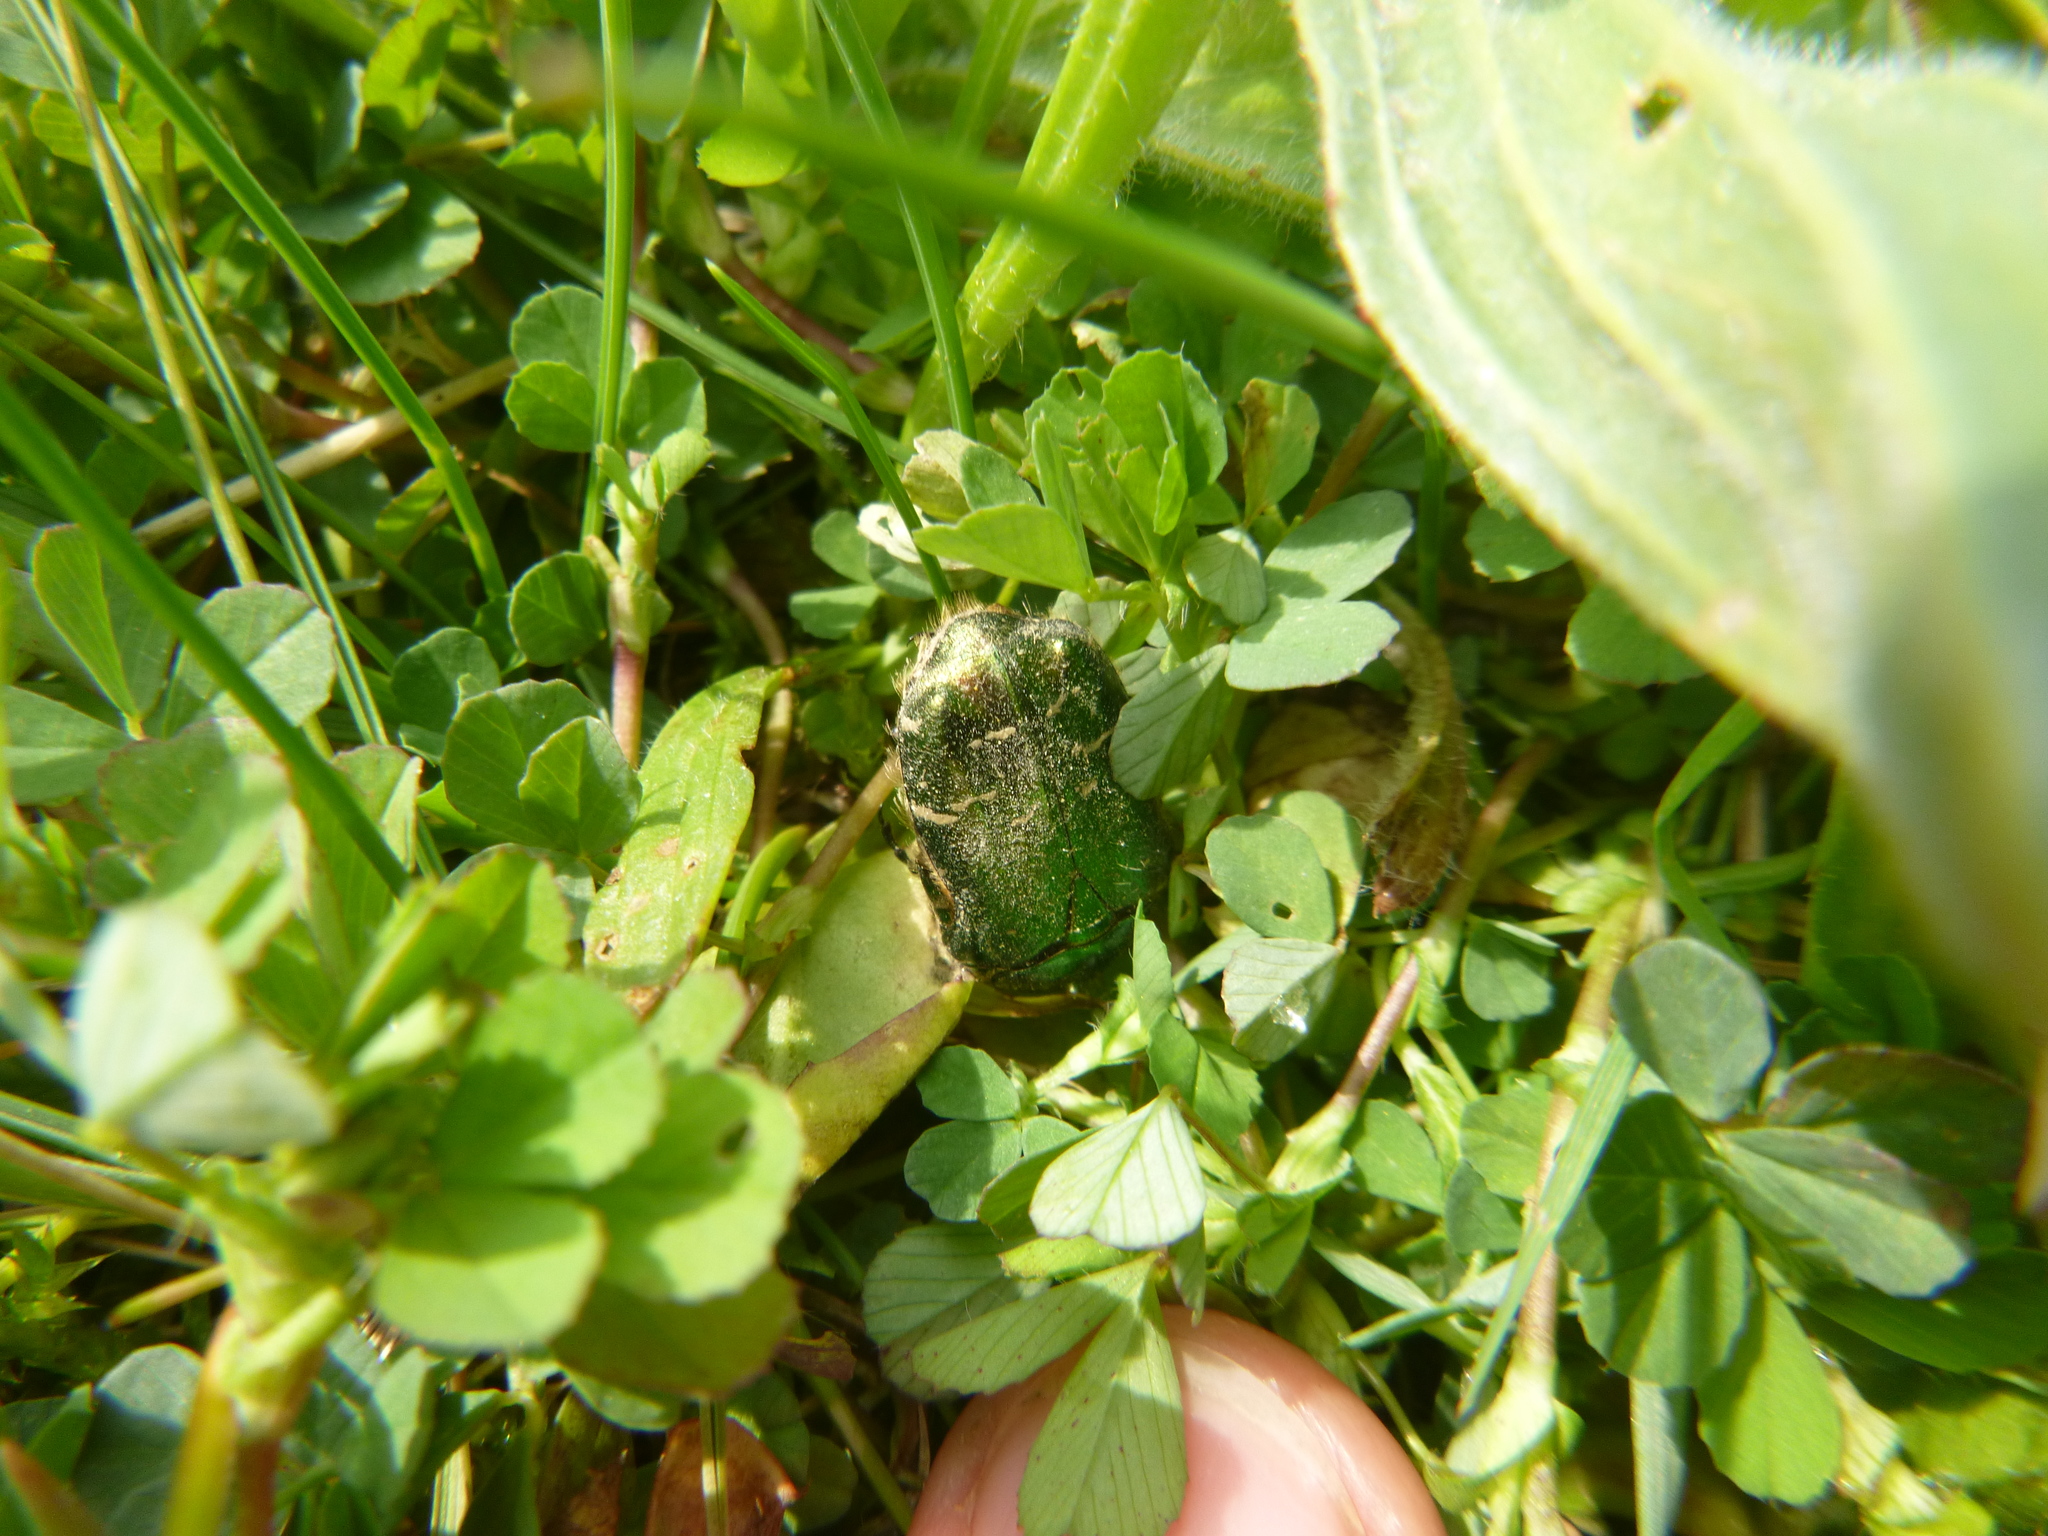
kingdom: Animalia
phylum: Arthropoda
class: Insecta
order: Coleoptera
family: Scarabaeidae
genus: Cetonia
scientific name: Cetonia aurata
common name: Rose chafer
